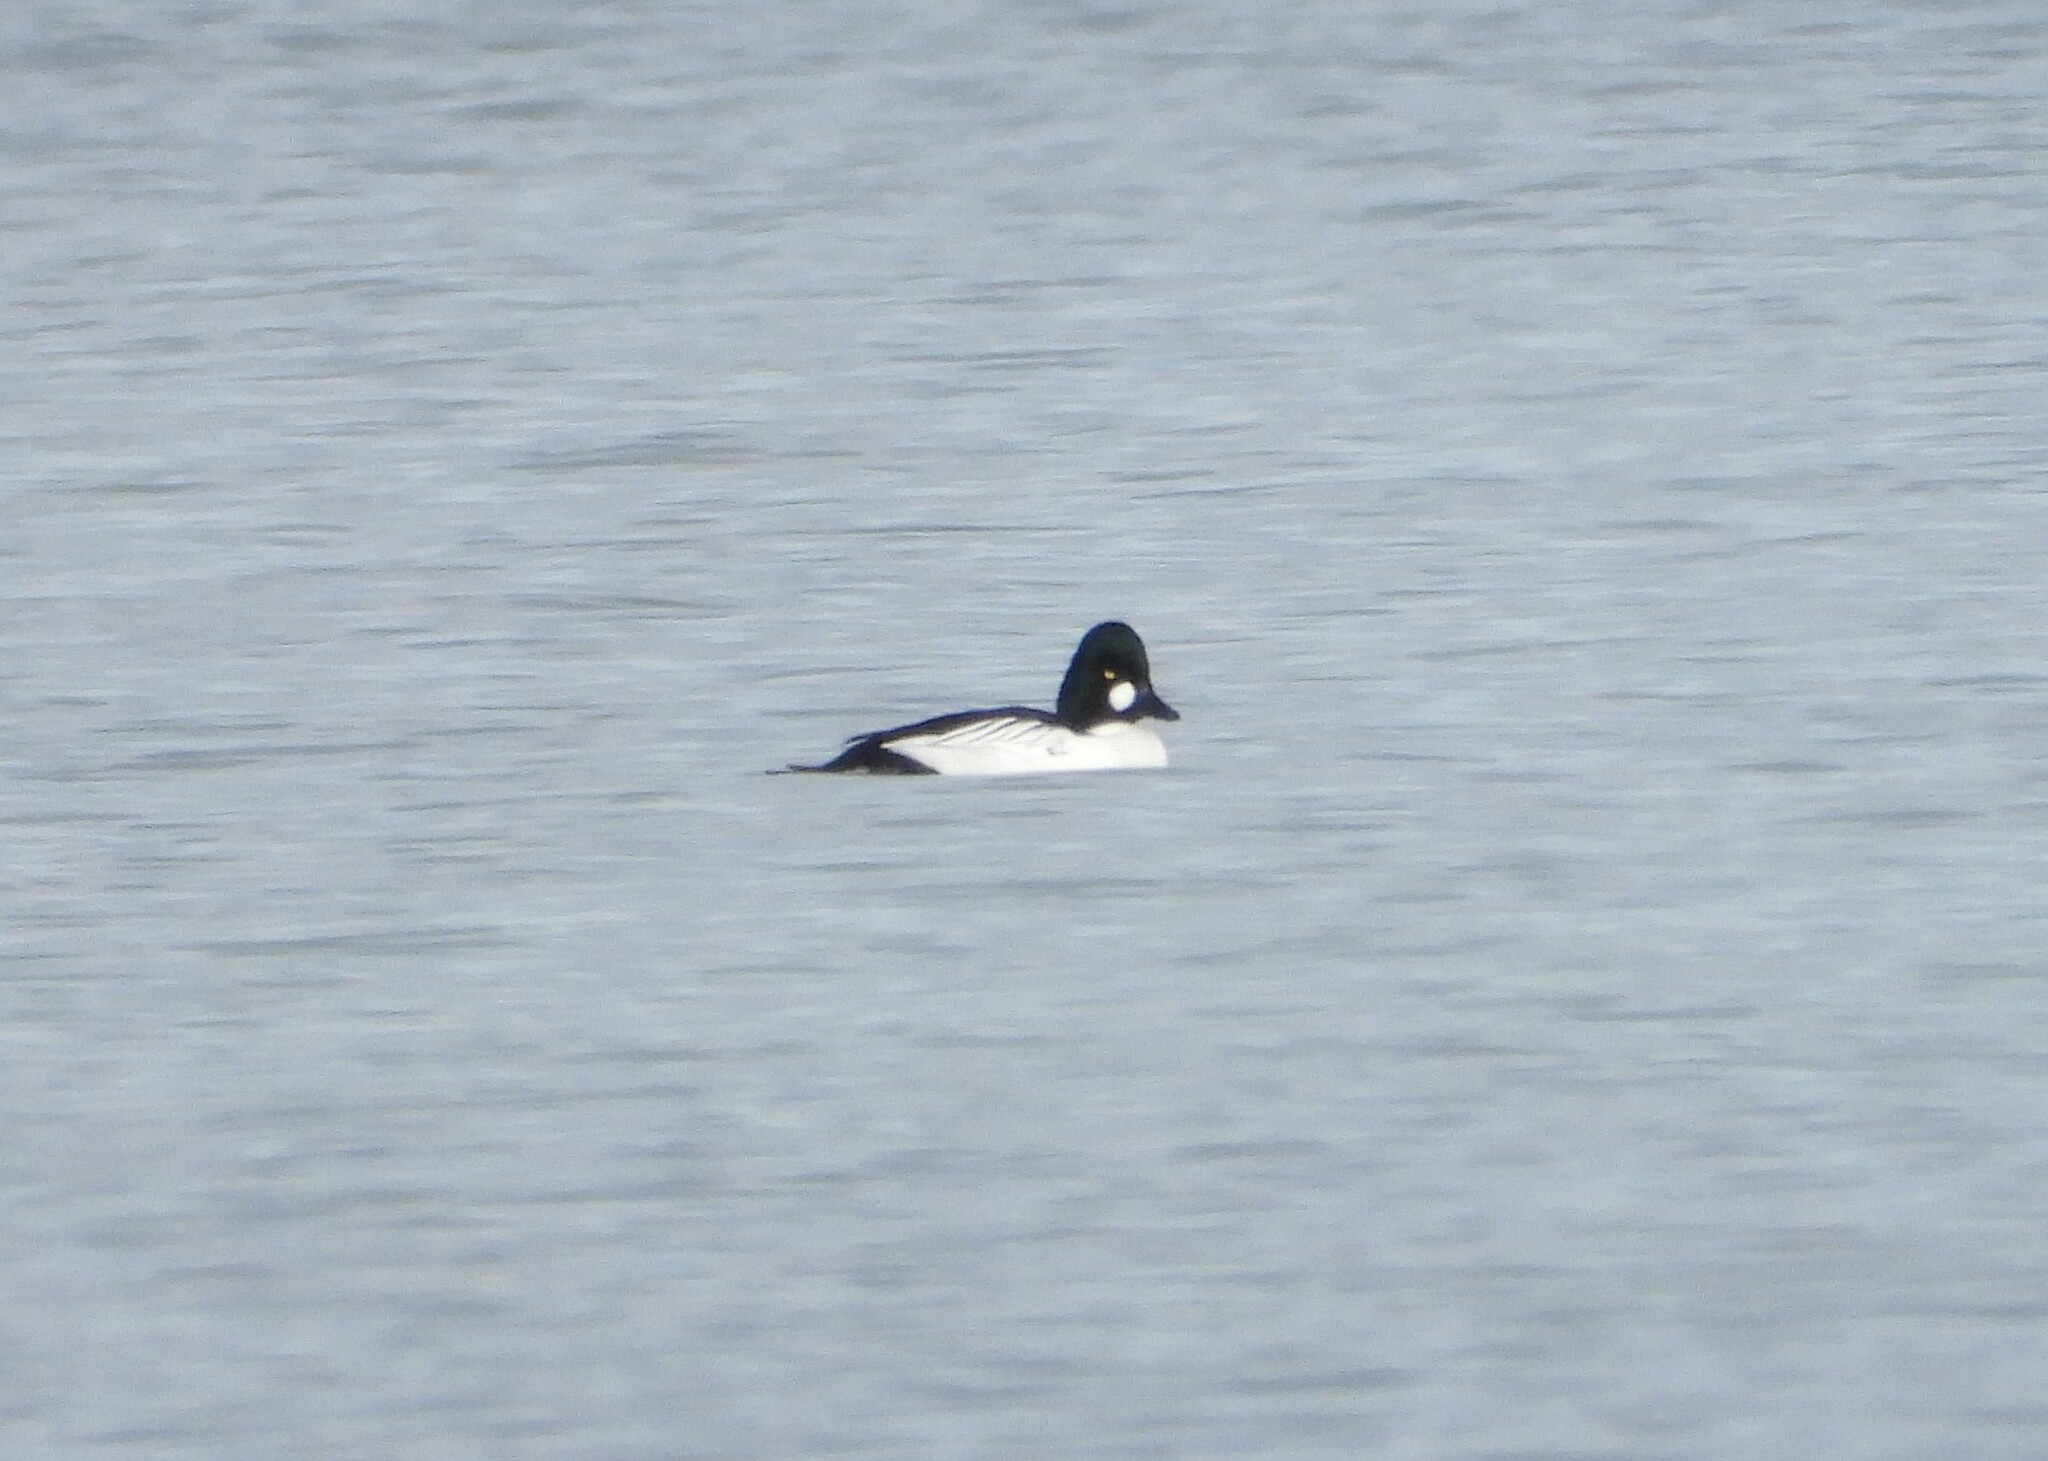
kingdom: Animalia
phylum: Chordata
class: Aves
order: Anseriformes
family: Anatidae
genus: Bucephala
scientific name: Bucephala clangula
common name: Common goldeneye
